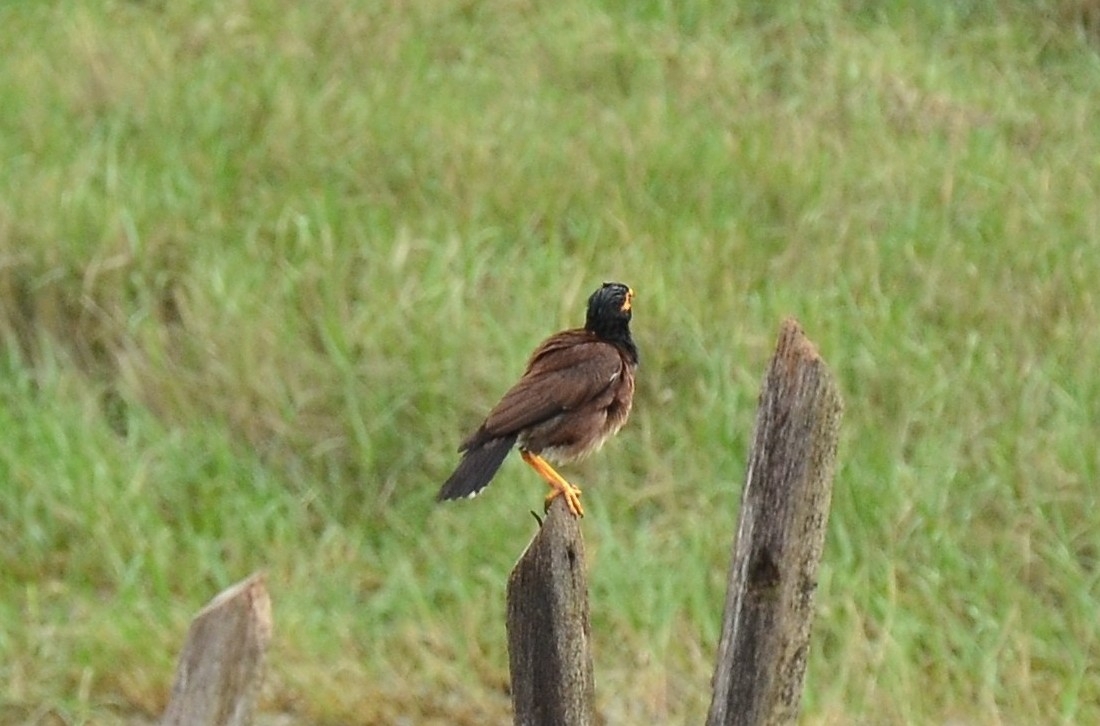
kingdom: Animalia
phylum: Chordata
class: Aves
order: Passeriformes
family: Sturnidae
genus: Acridotheres
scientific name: Acridotheres tristis
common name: Common myna
